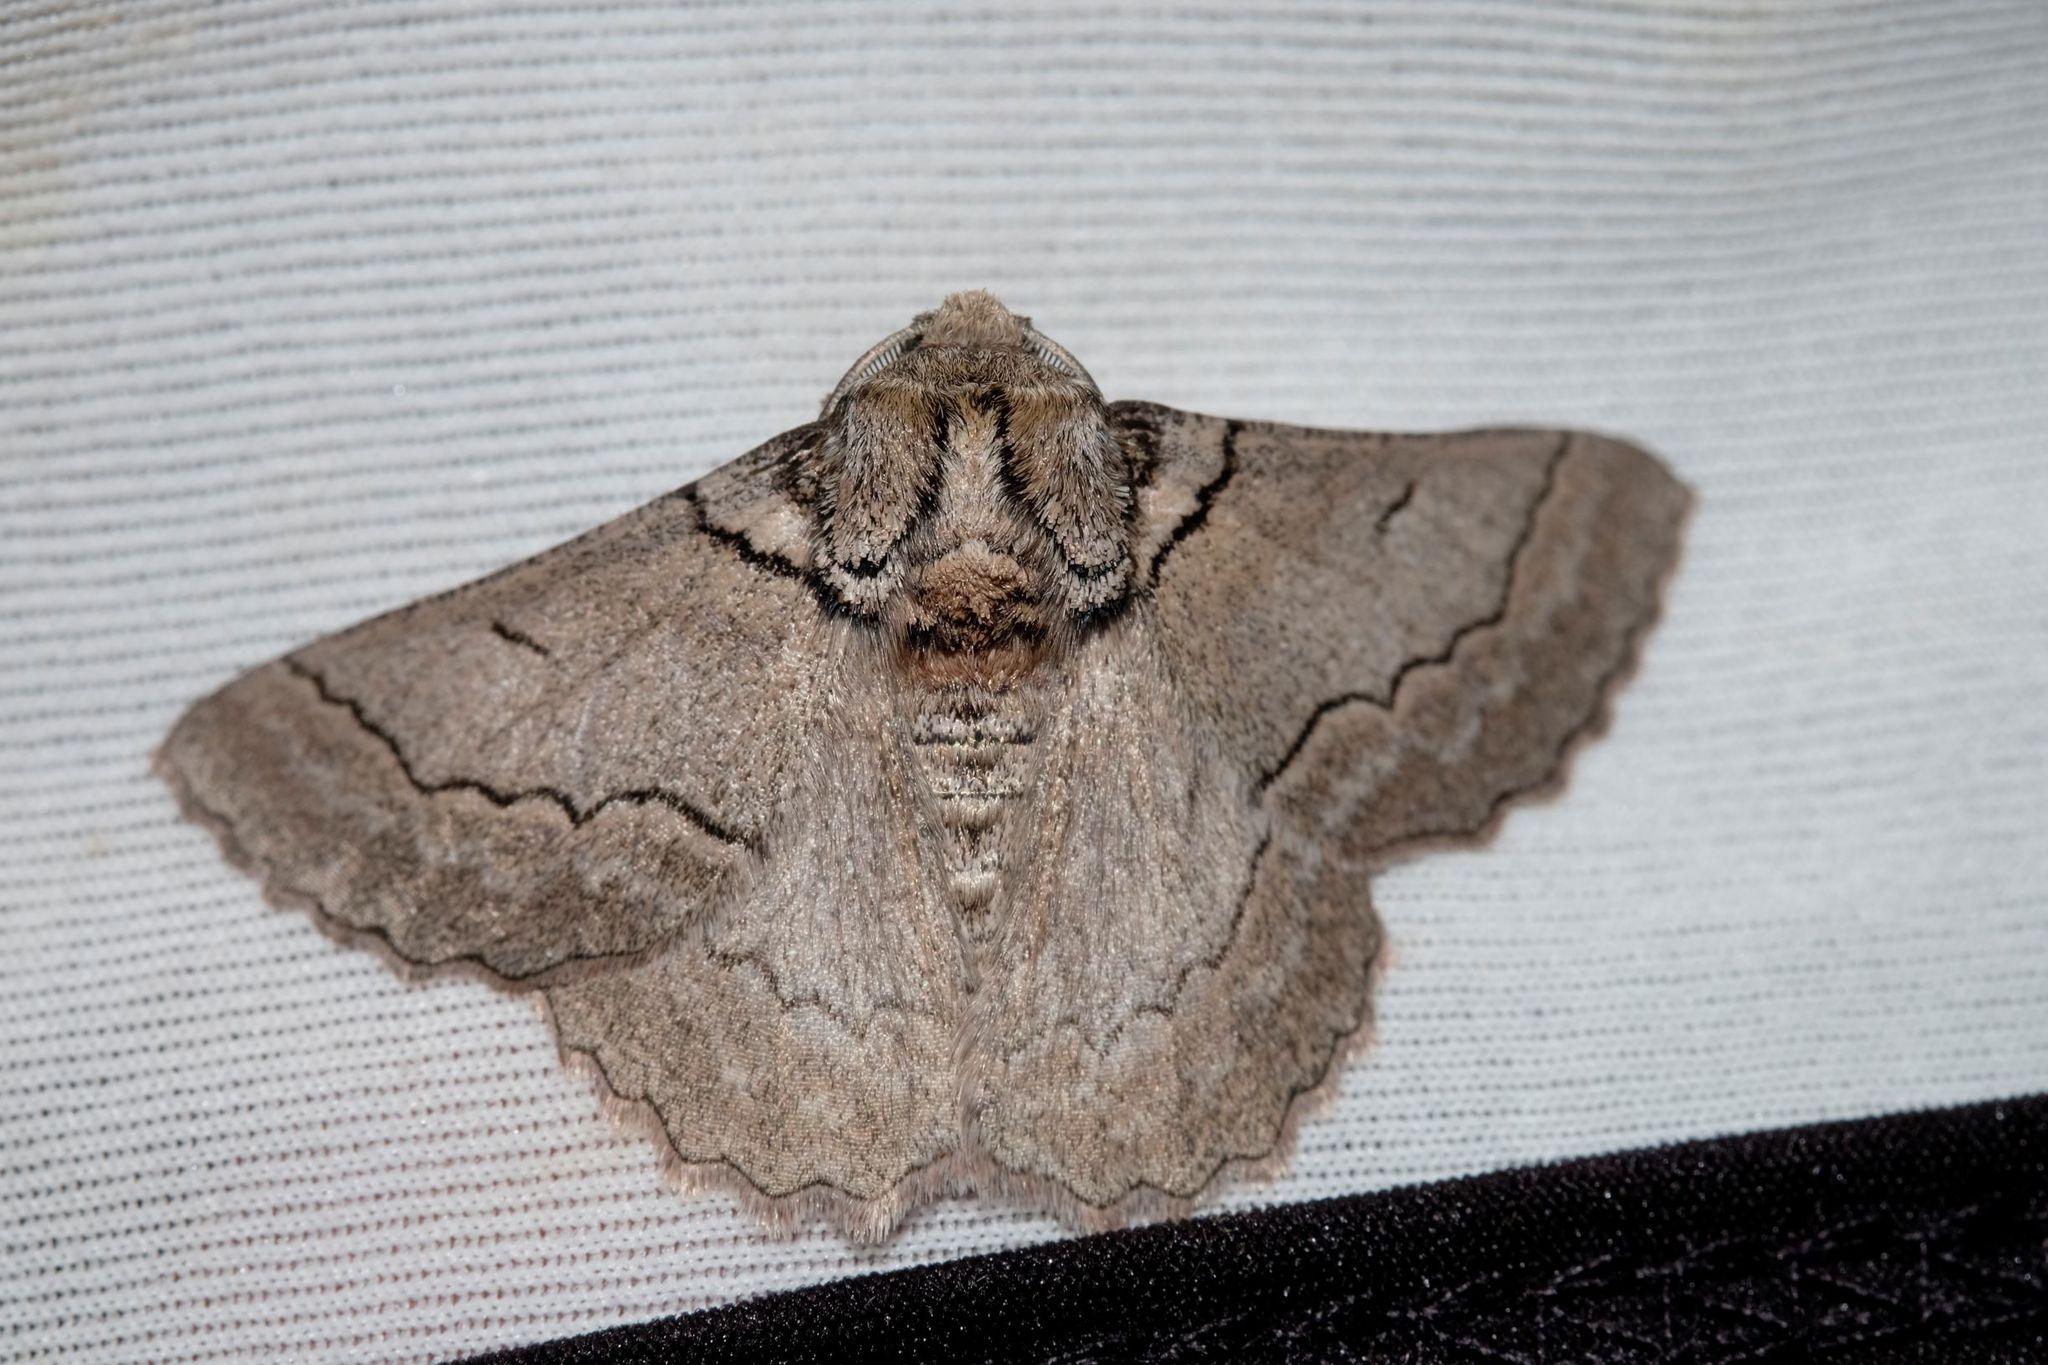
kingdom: Animalia
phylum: Arthropoda
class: Insecta
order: Lepidoptera
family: Geometridae
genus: Hypobapta
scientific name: Hypobapta tachyhalotaria
